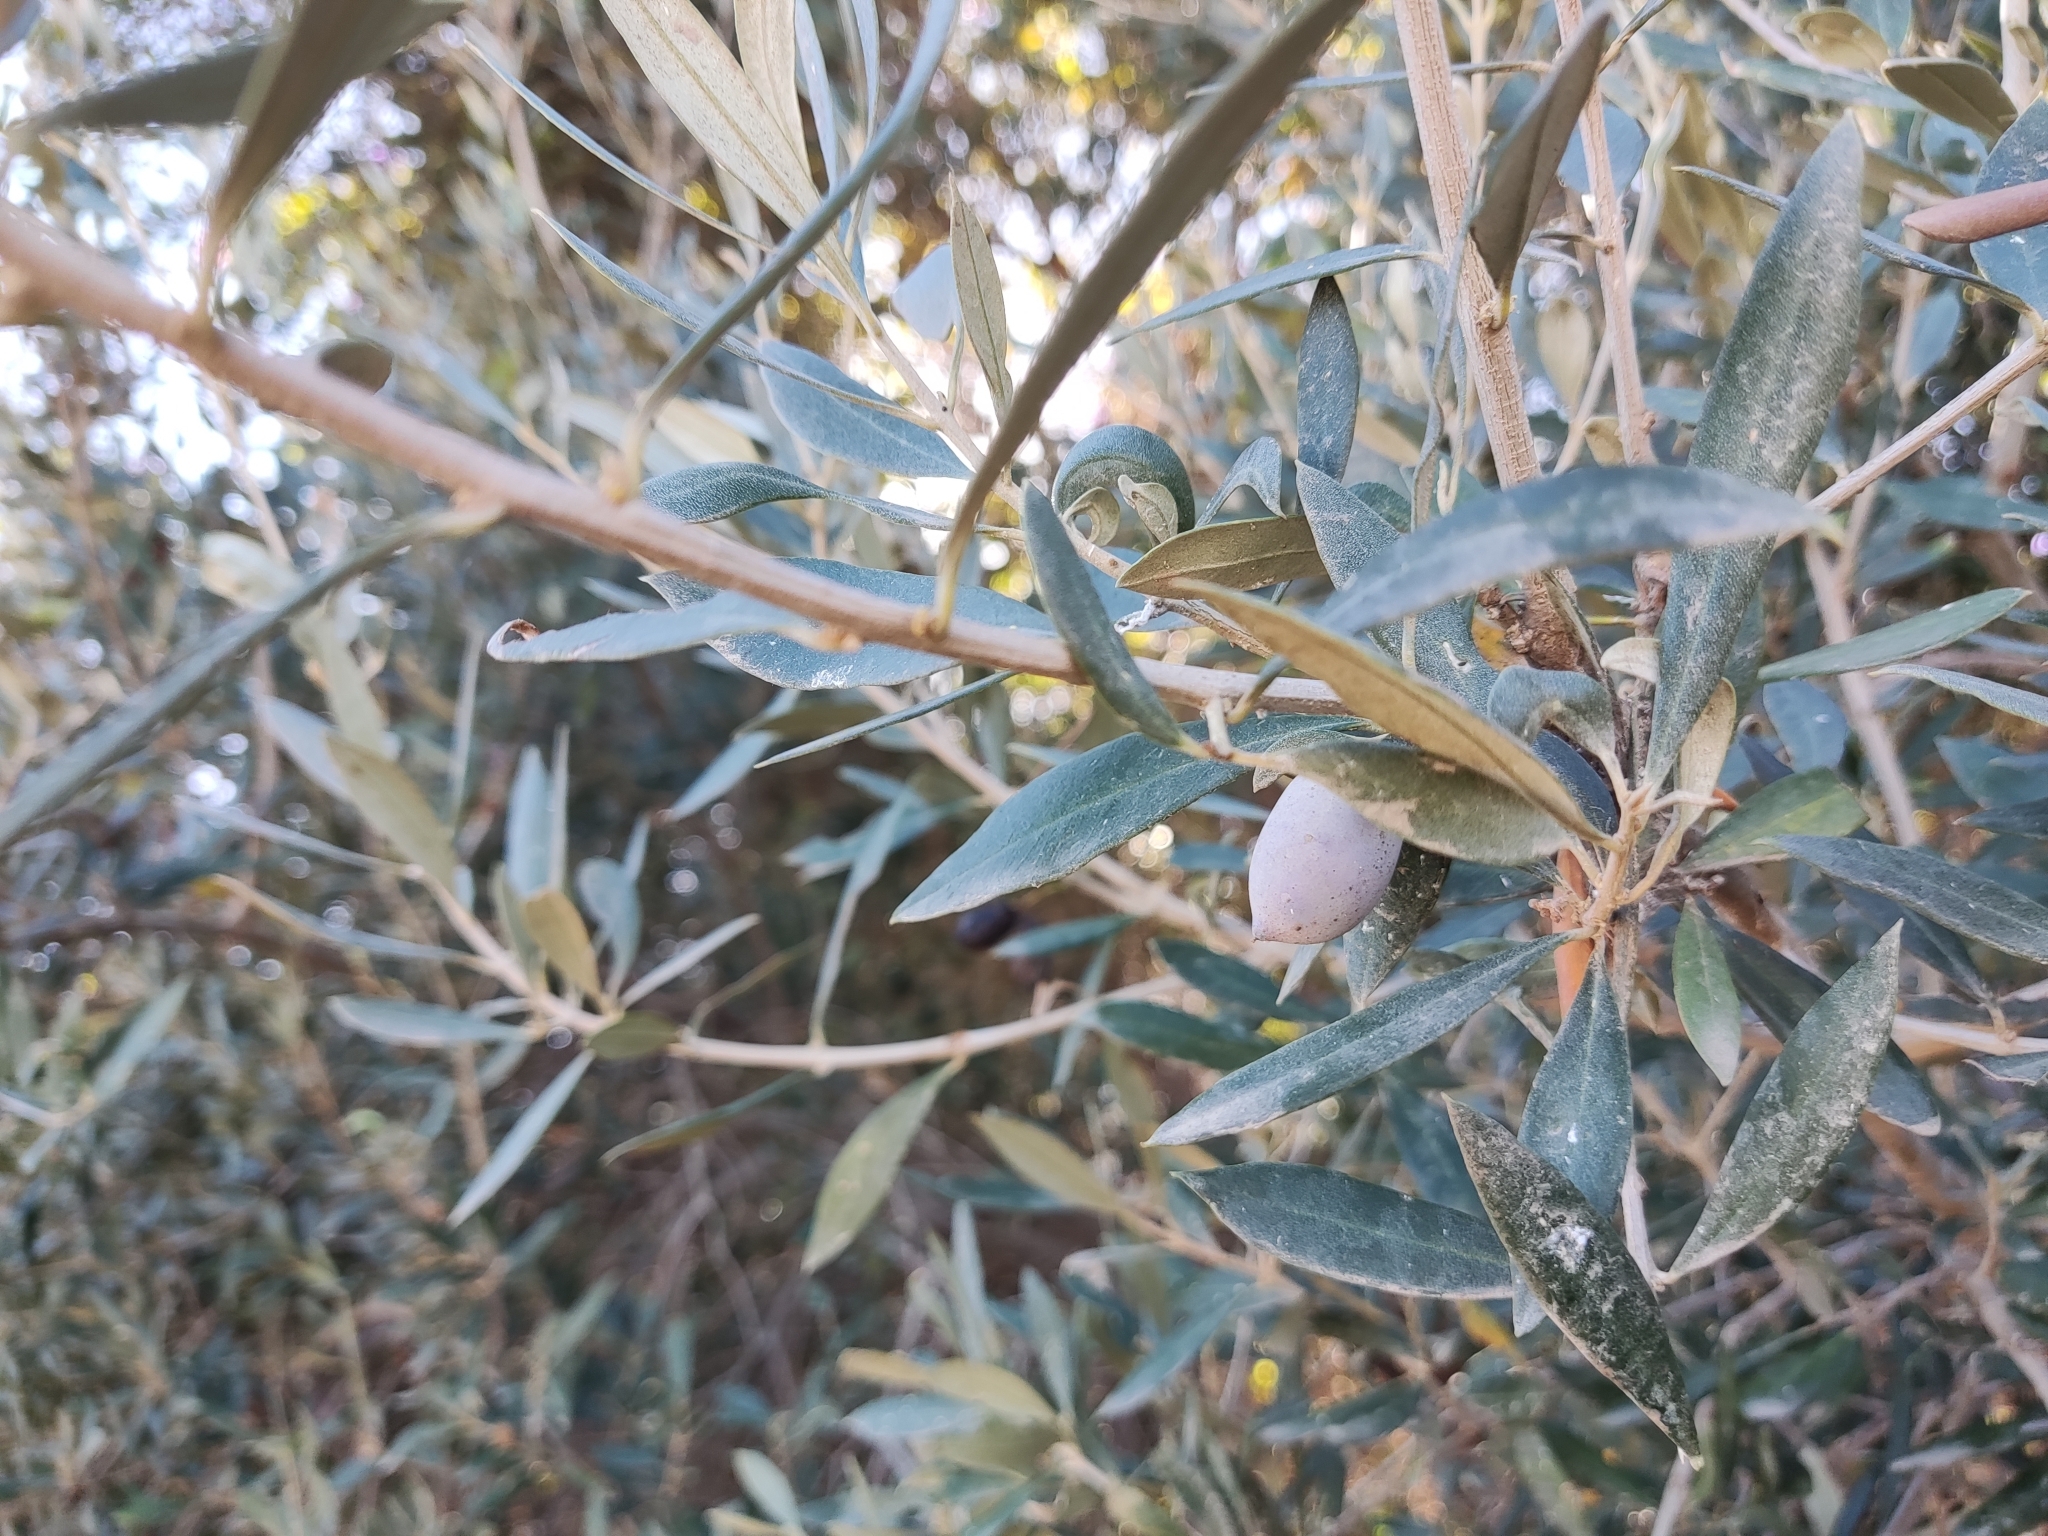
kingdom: Plantae
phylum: Tracheophyta
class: Magnoliopsida
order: Lamiales
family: Oleaceae
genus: Olea
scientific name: Olea europaea
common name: Olive
